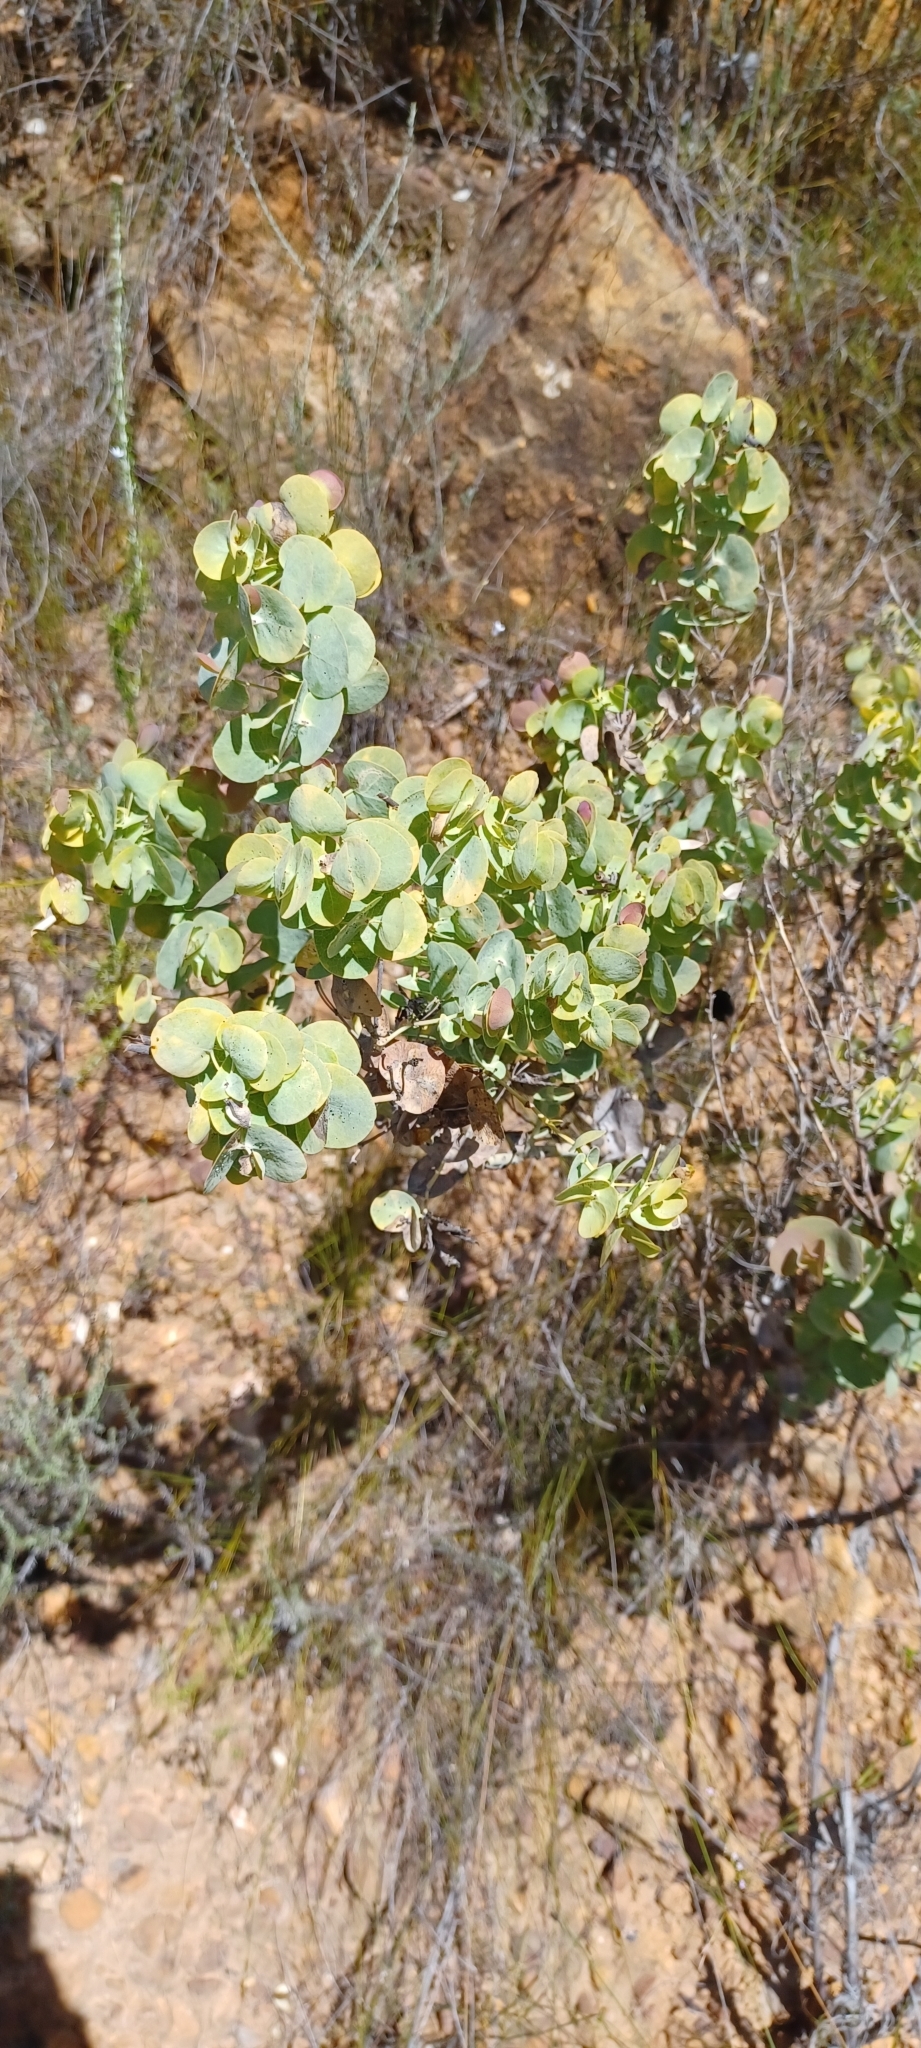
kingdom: Plantae
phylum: Tracheophyta
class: Magnoliopsida
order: Fabales
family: Fabaceae
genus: Rafnia
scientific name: Rafnia amplexicaulis
